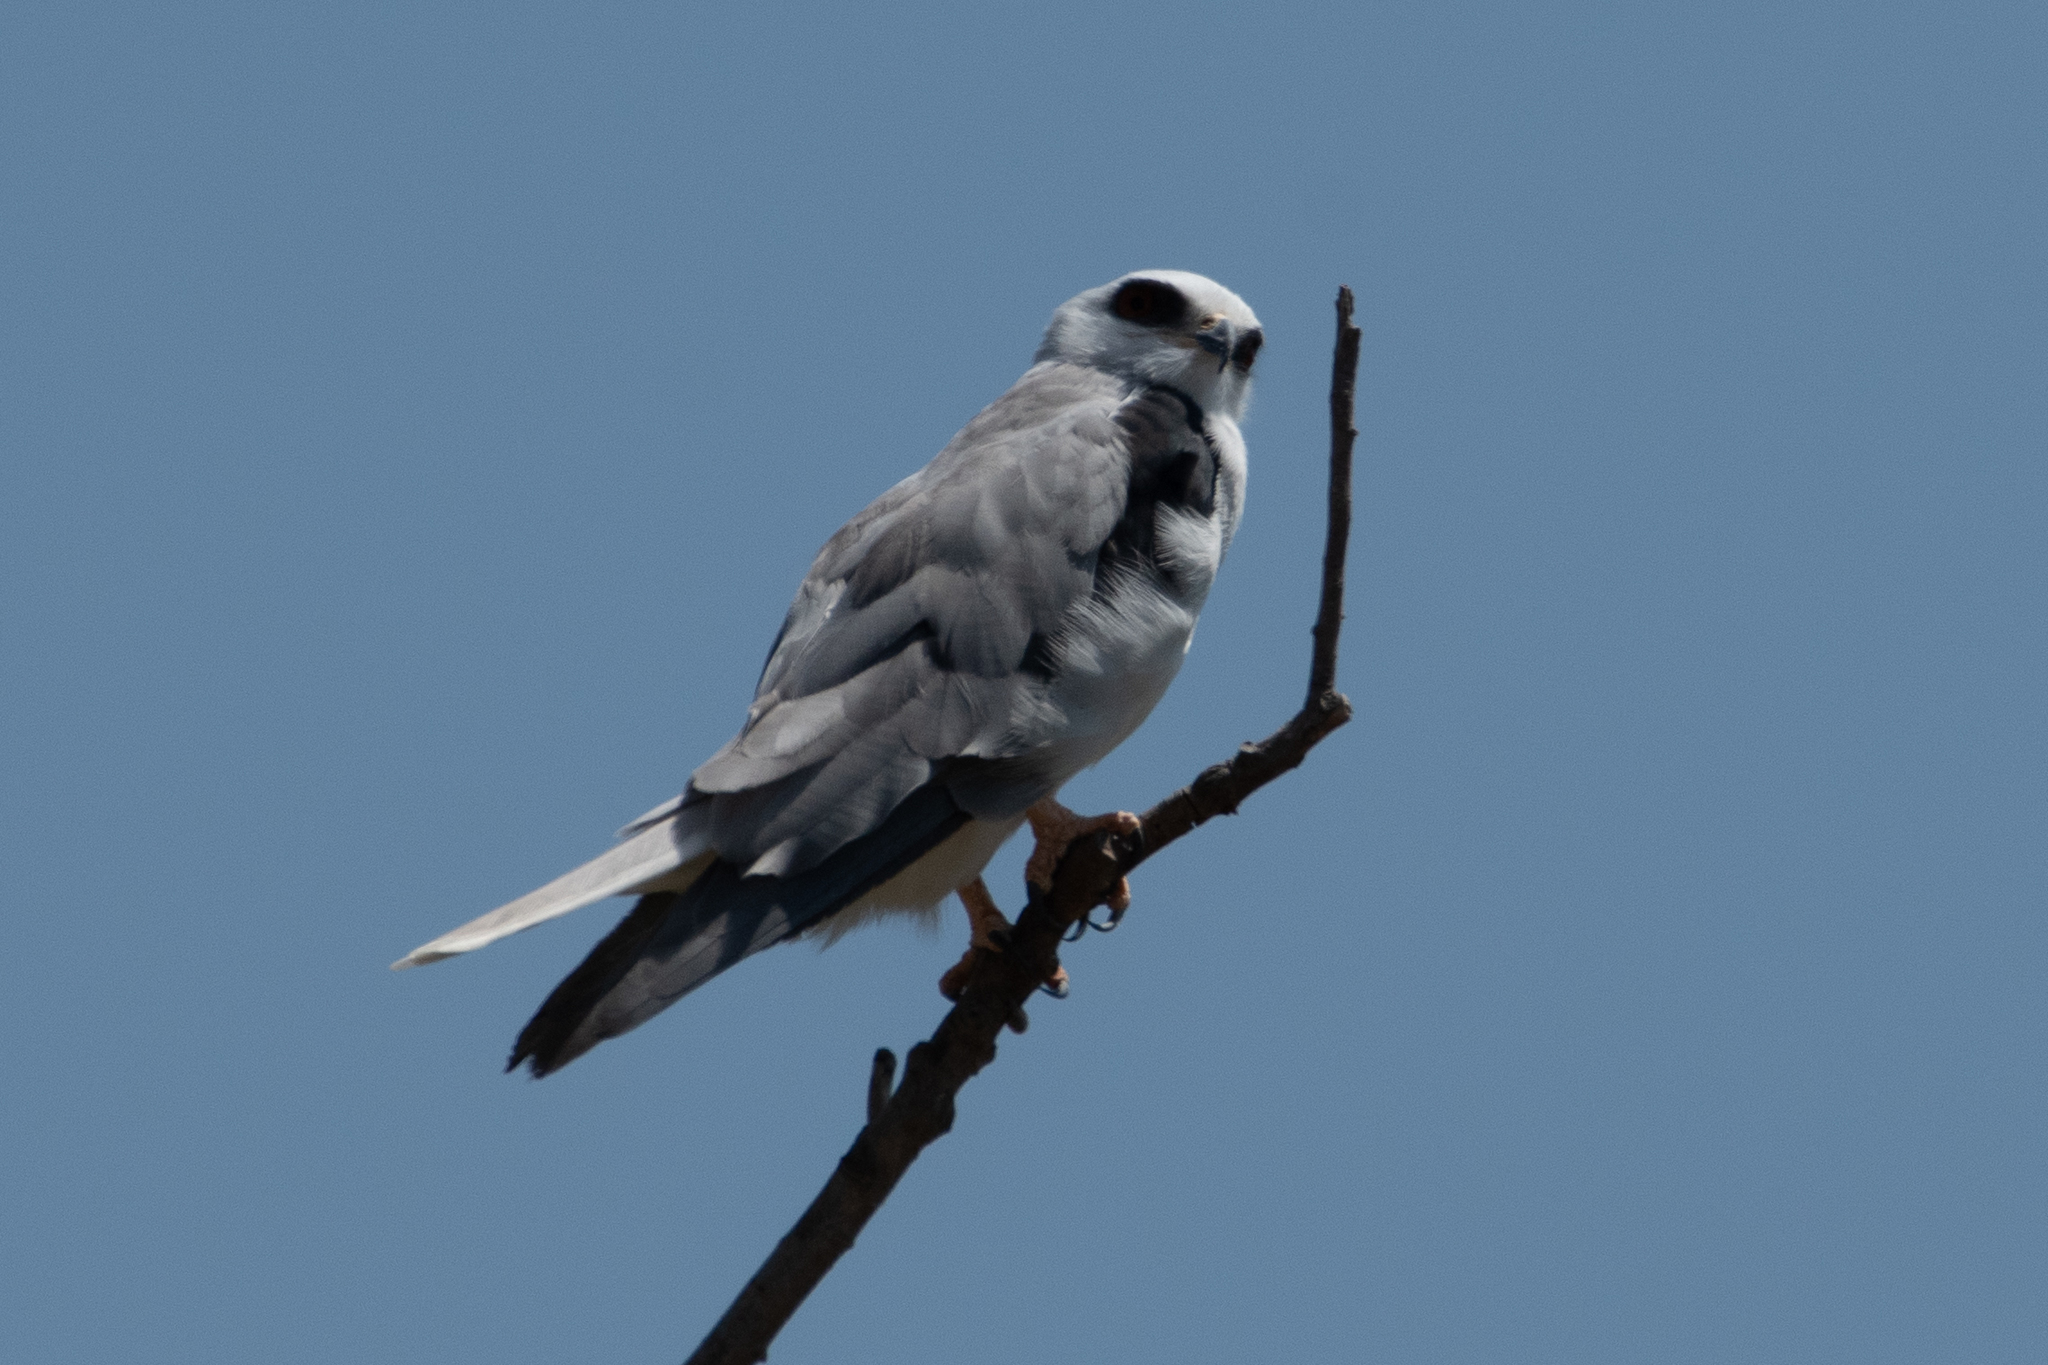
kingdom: Animalia
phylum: Chordata
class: Aves
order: Accipitriformes
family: Accipitridae
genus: Elanus
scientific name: Elanus leucurus
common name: White-tailed kite
